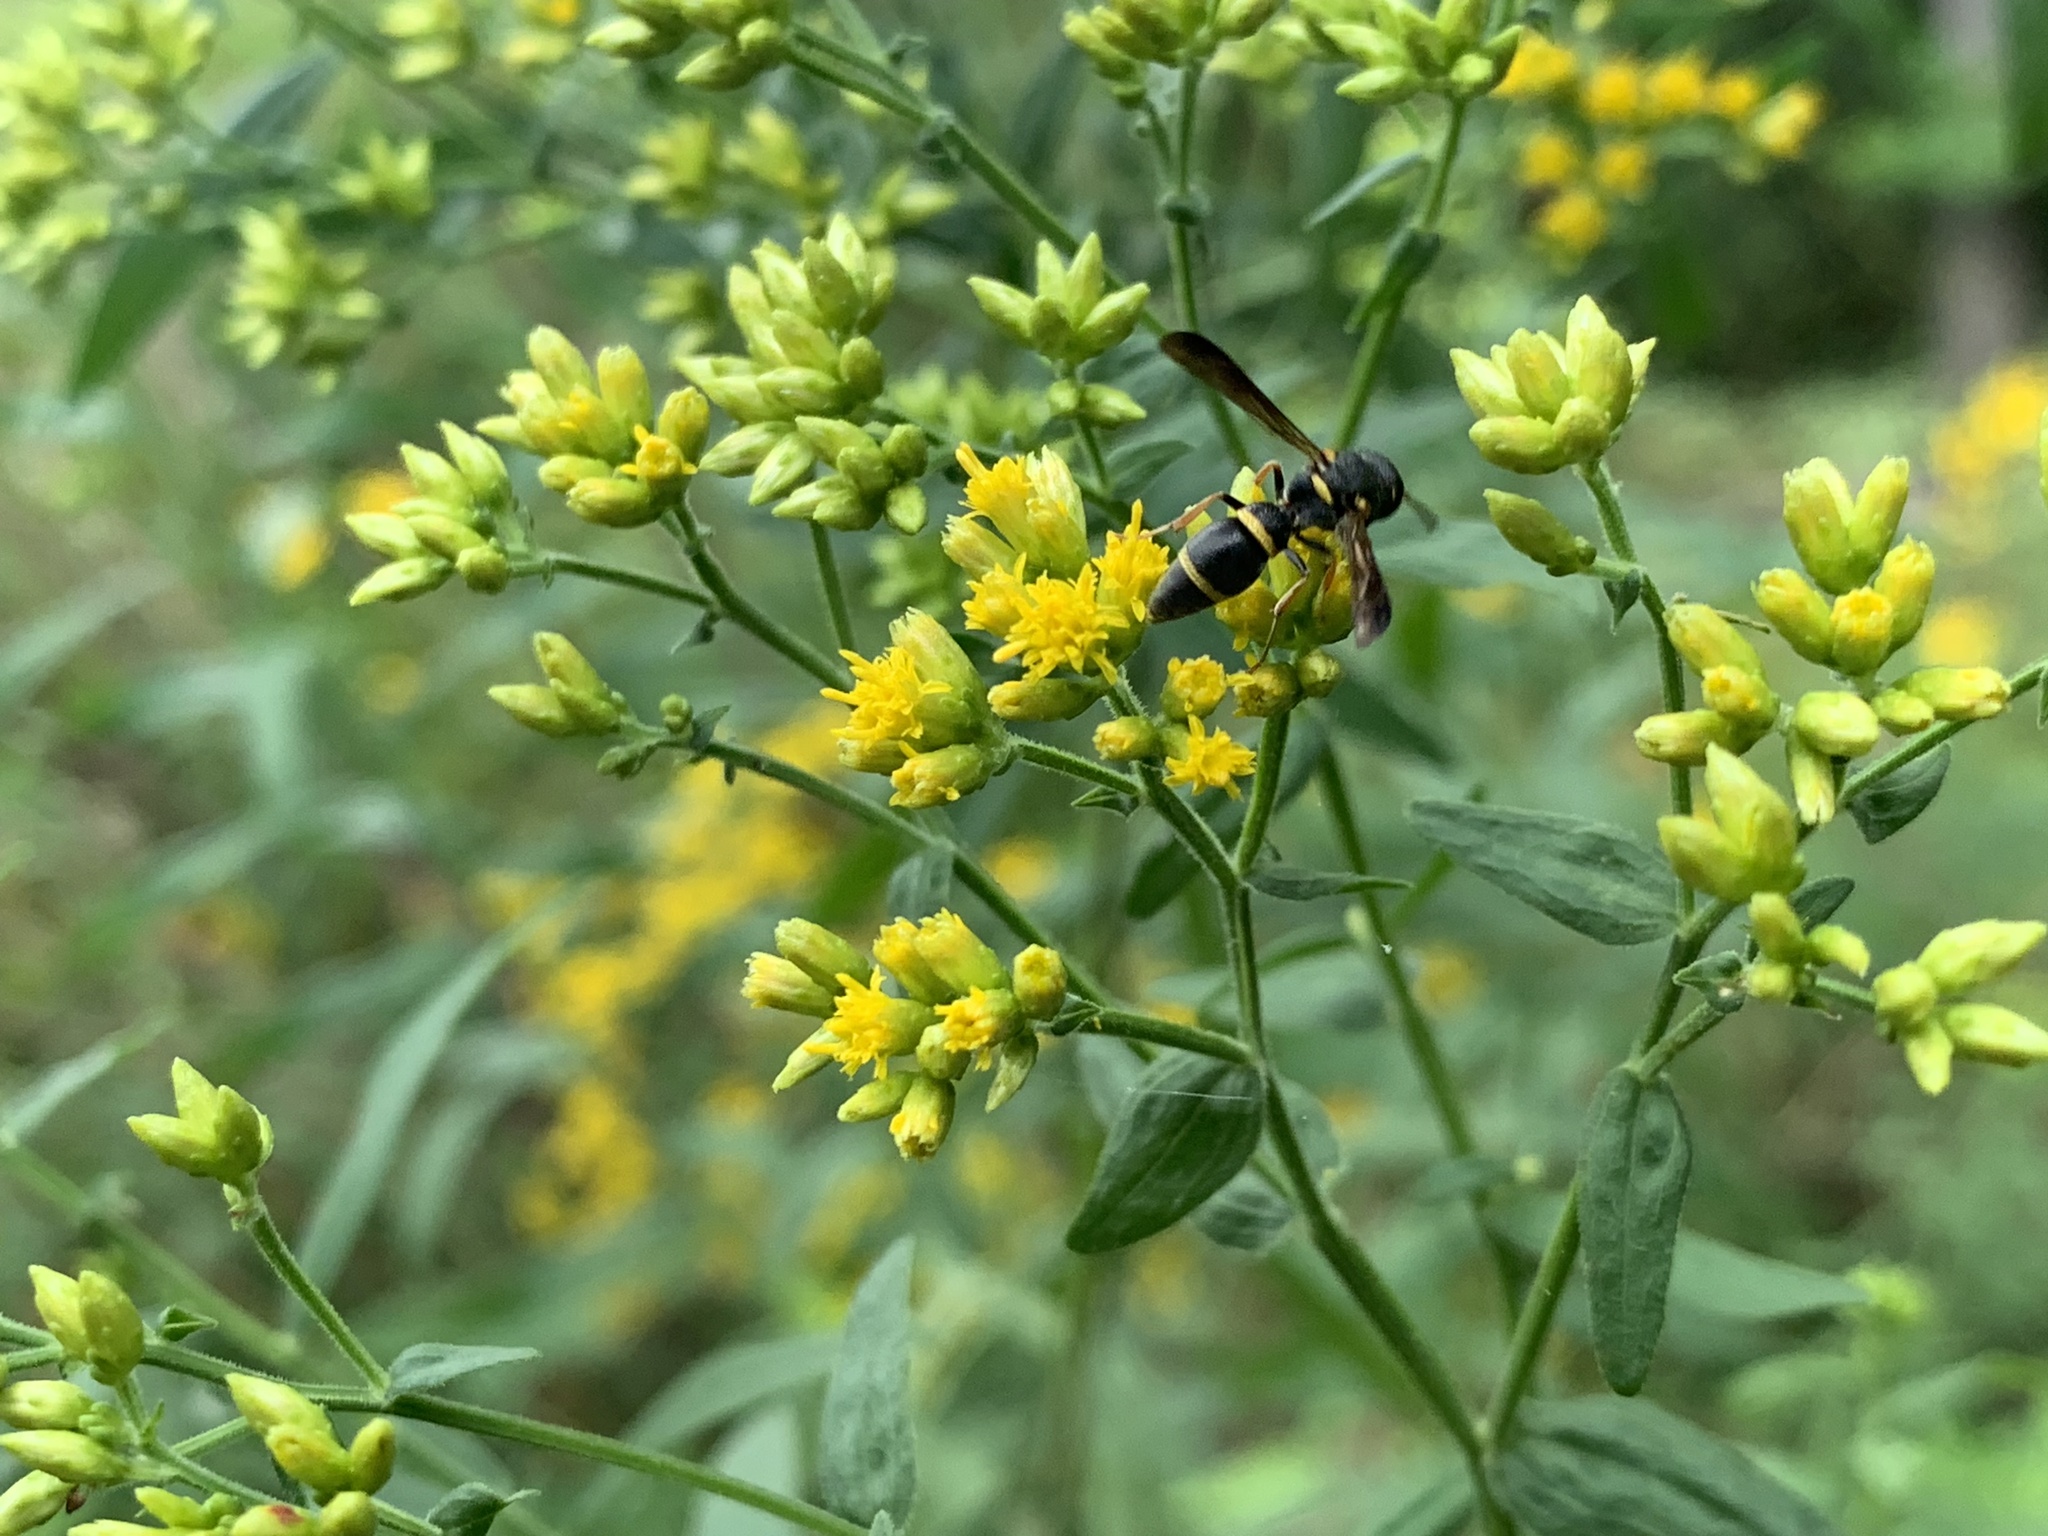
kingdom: Animalia
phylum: Arthropoda
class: Insecta
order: Hymenoptera
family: Eumenidae
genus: Parancistrocerus
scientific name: Parancistrocerus perennis
